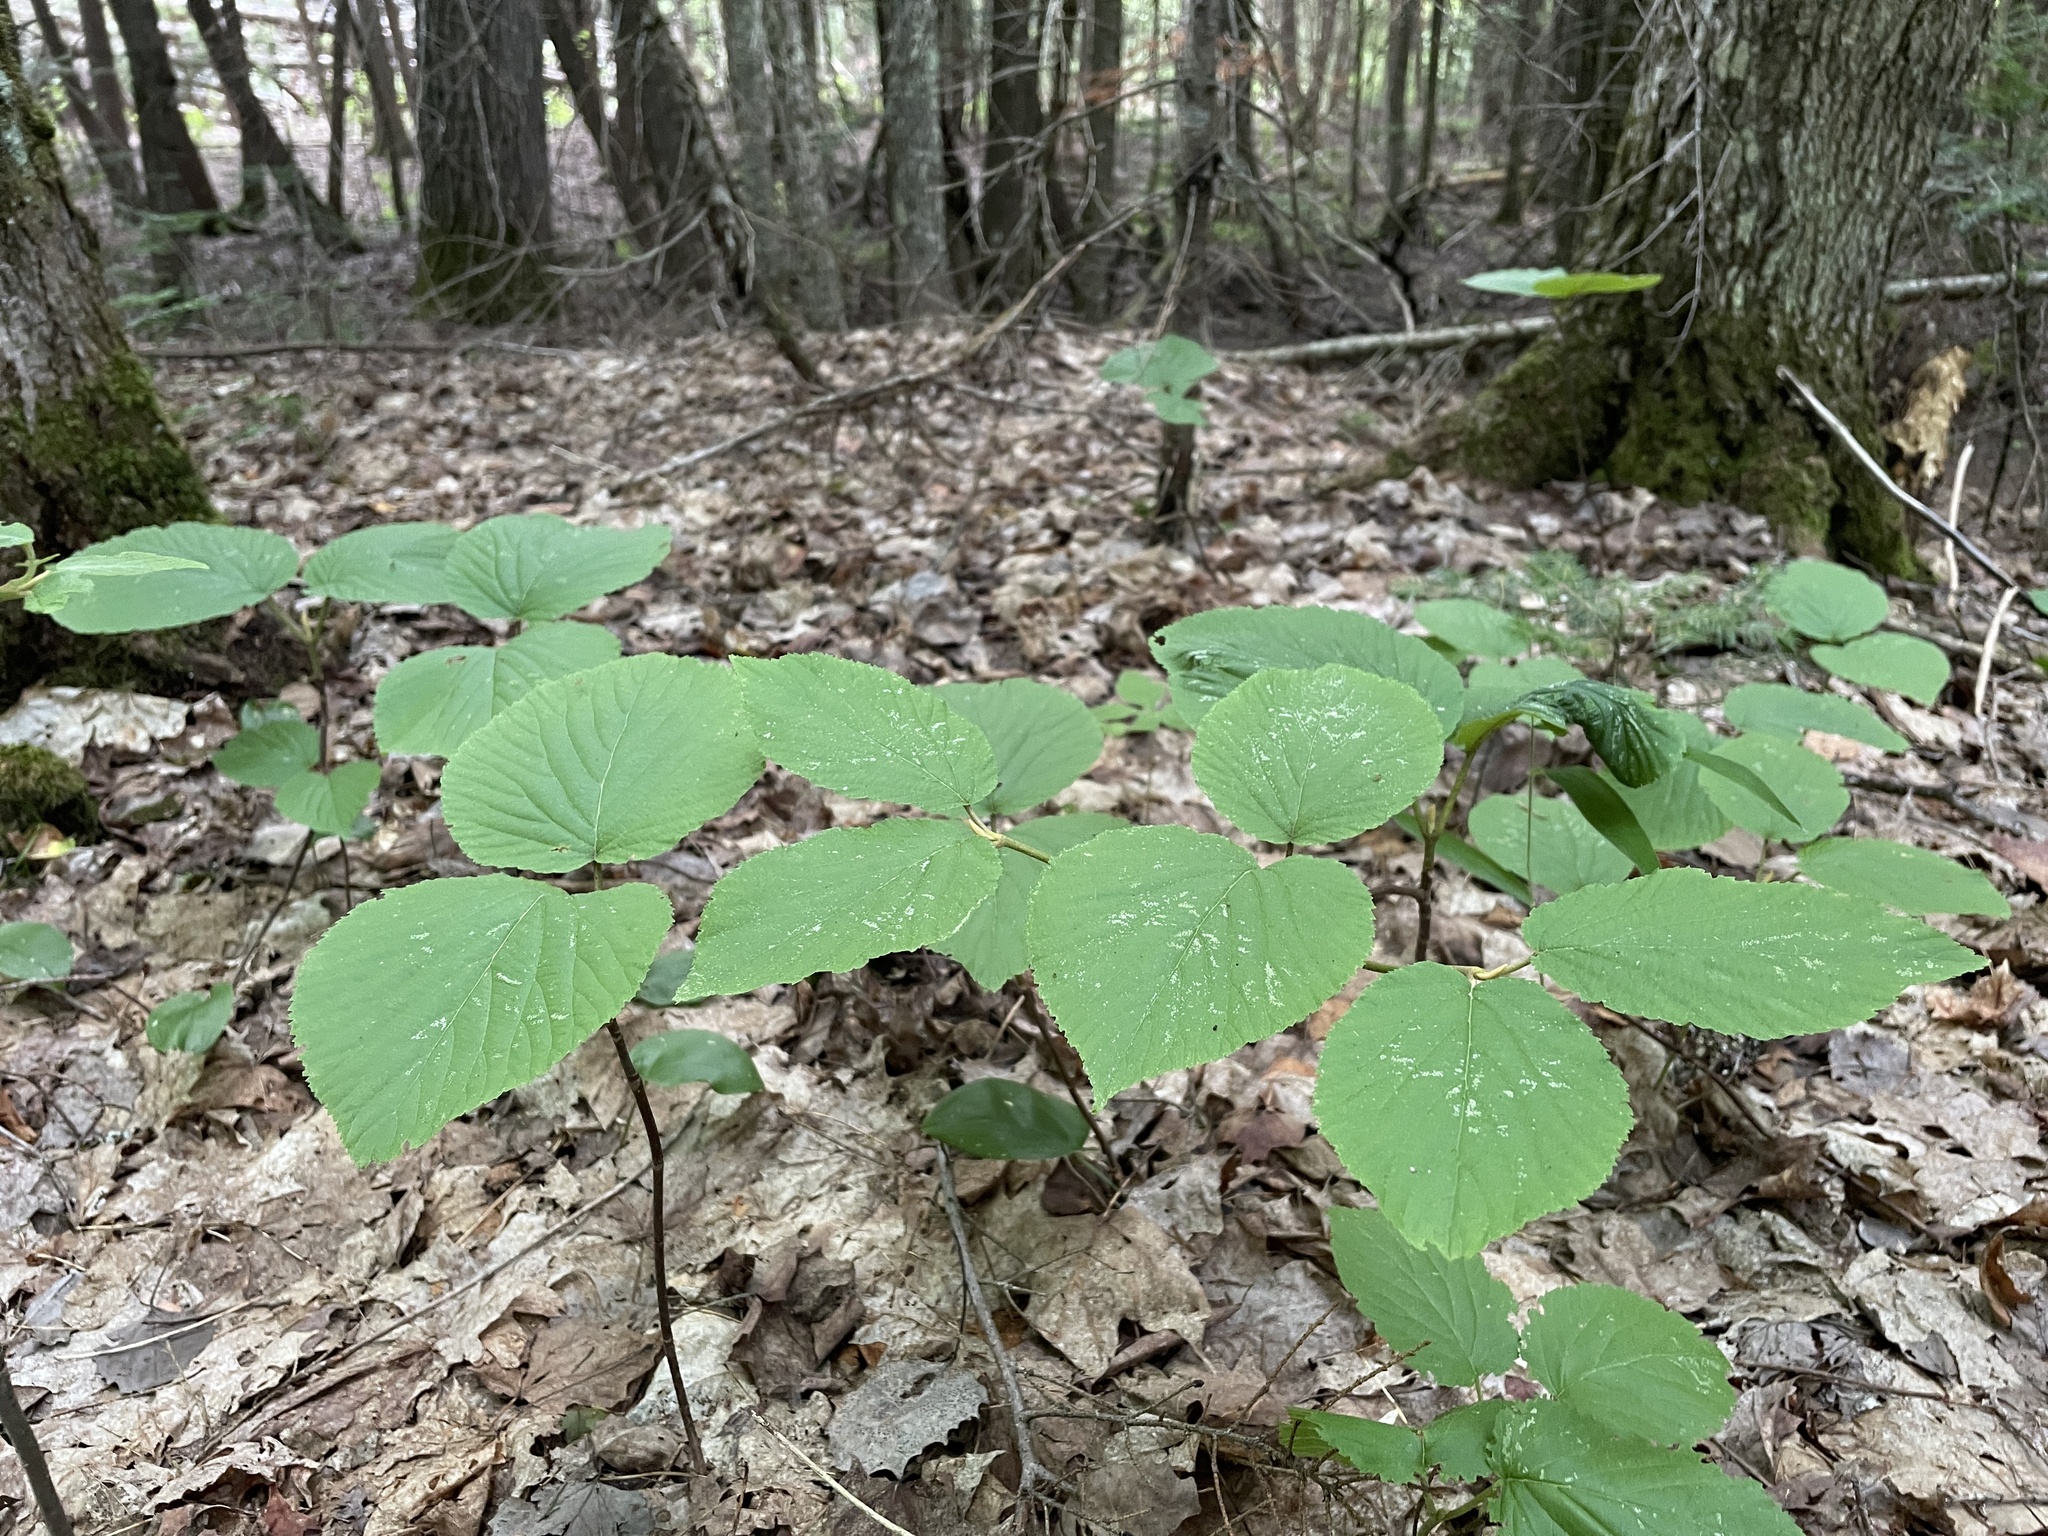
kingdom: Plantae
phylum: Tracheophyta
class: Magnoliopsida
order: Dipsacales
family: Viburnaceae
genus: Viburnum
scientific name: Viburnum lantanoides
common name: Hobblebush
